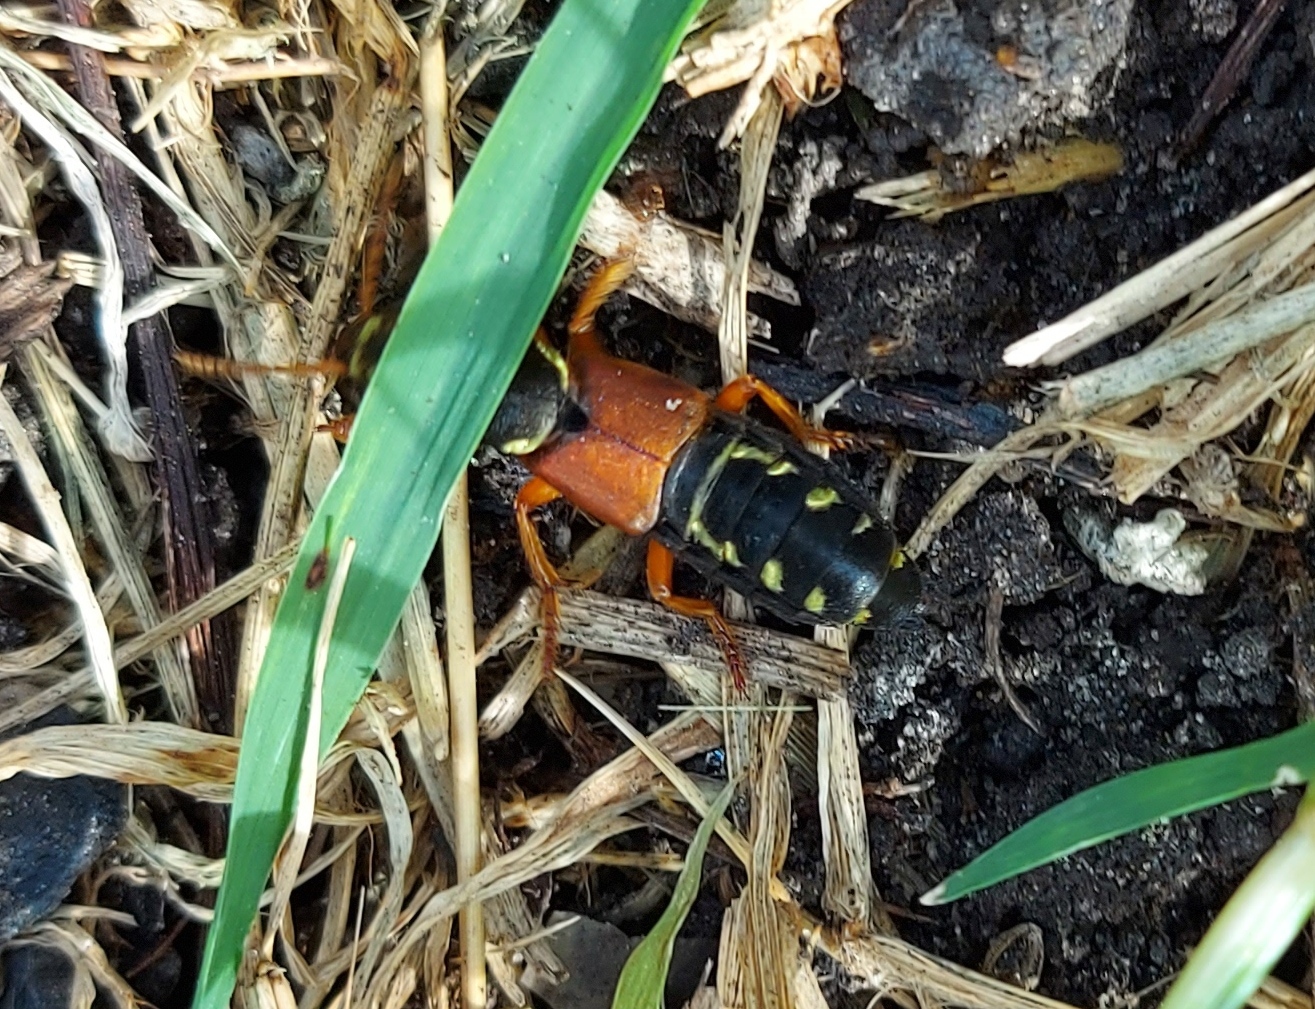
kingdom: Animalia
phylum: Arthropoda
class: Insecta
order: Coleoptera
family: Staphylinidae
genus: Staphylinus
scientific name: Staphylinus caesareus
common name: Staph beetle
